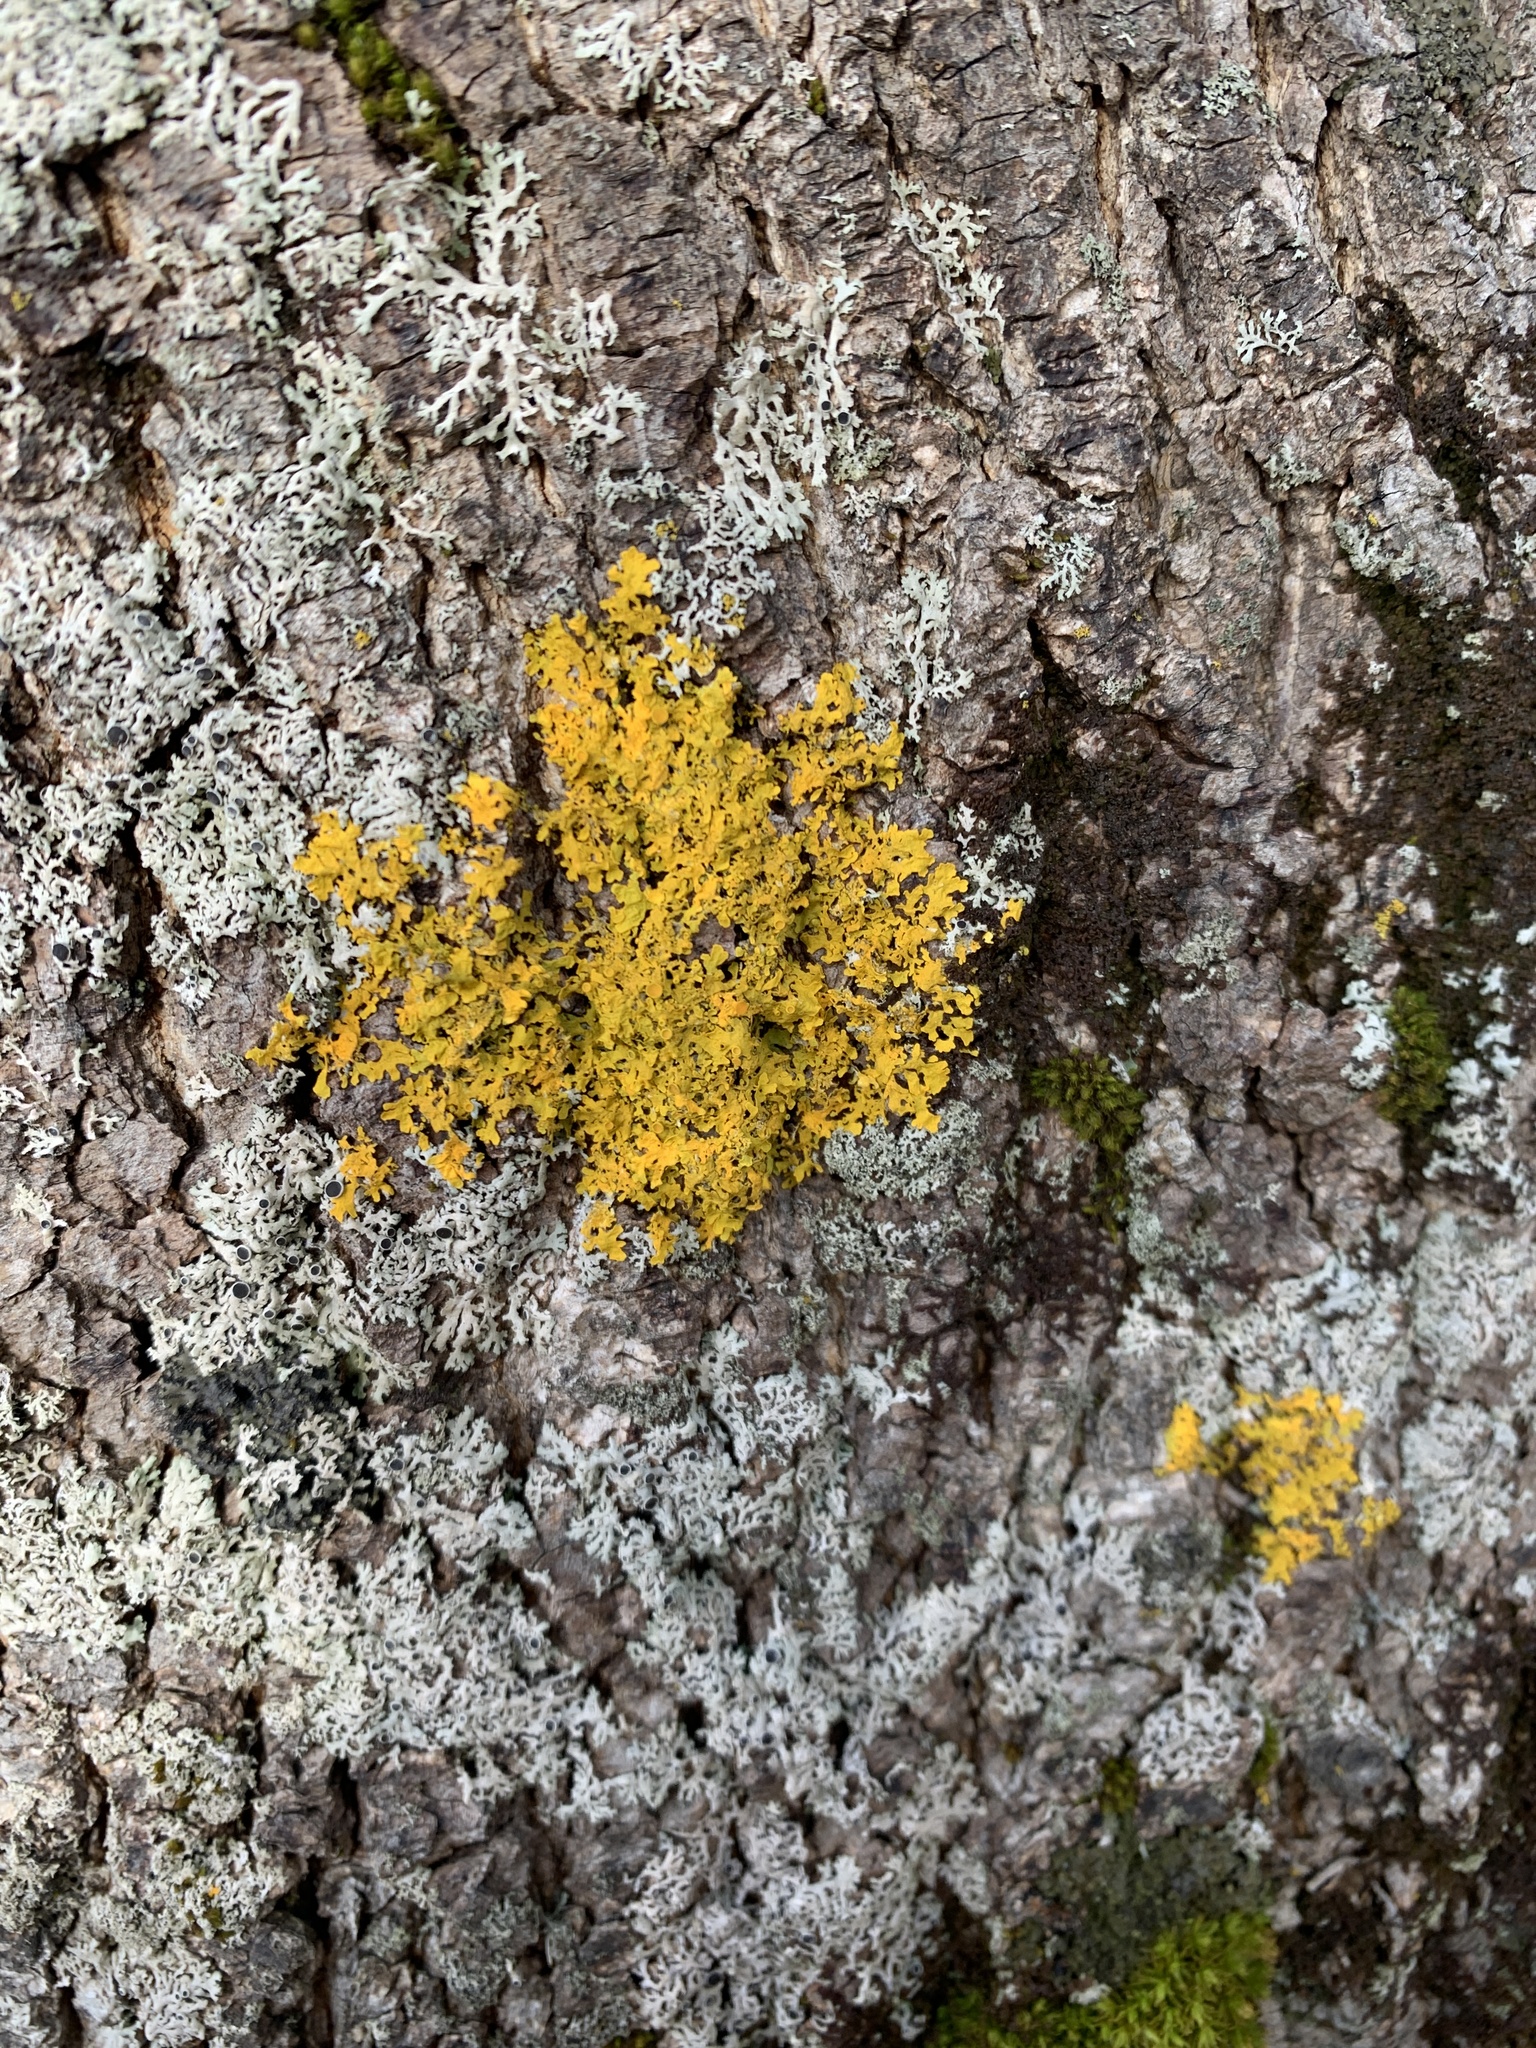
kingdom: Fungi
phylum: Ascomycota
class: Lecanoromycetes
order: Teloschistales
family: Teloschistaceae
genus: Xanthoria
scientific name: Xanthoria parietina
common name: Common orange lichen
